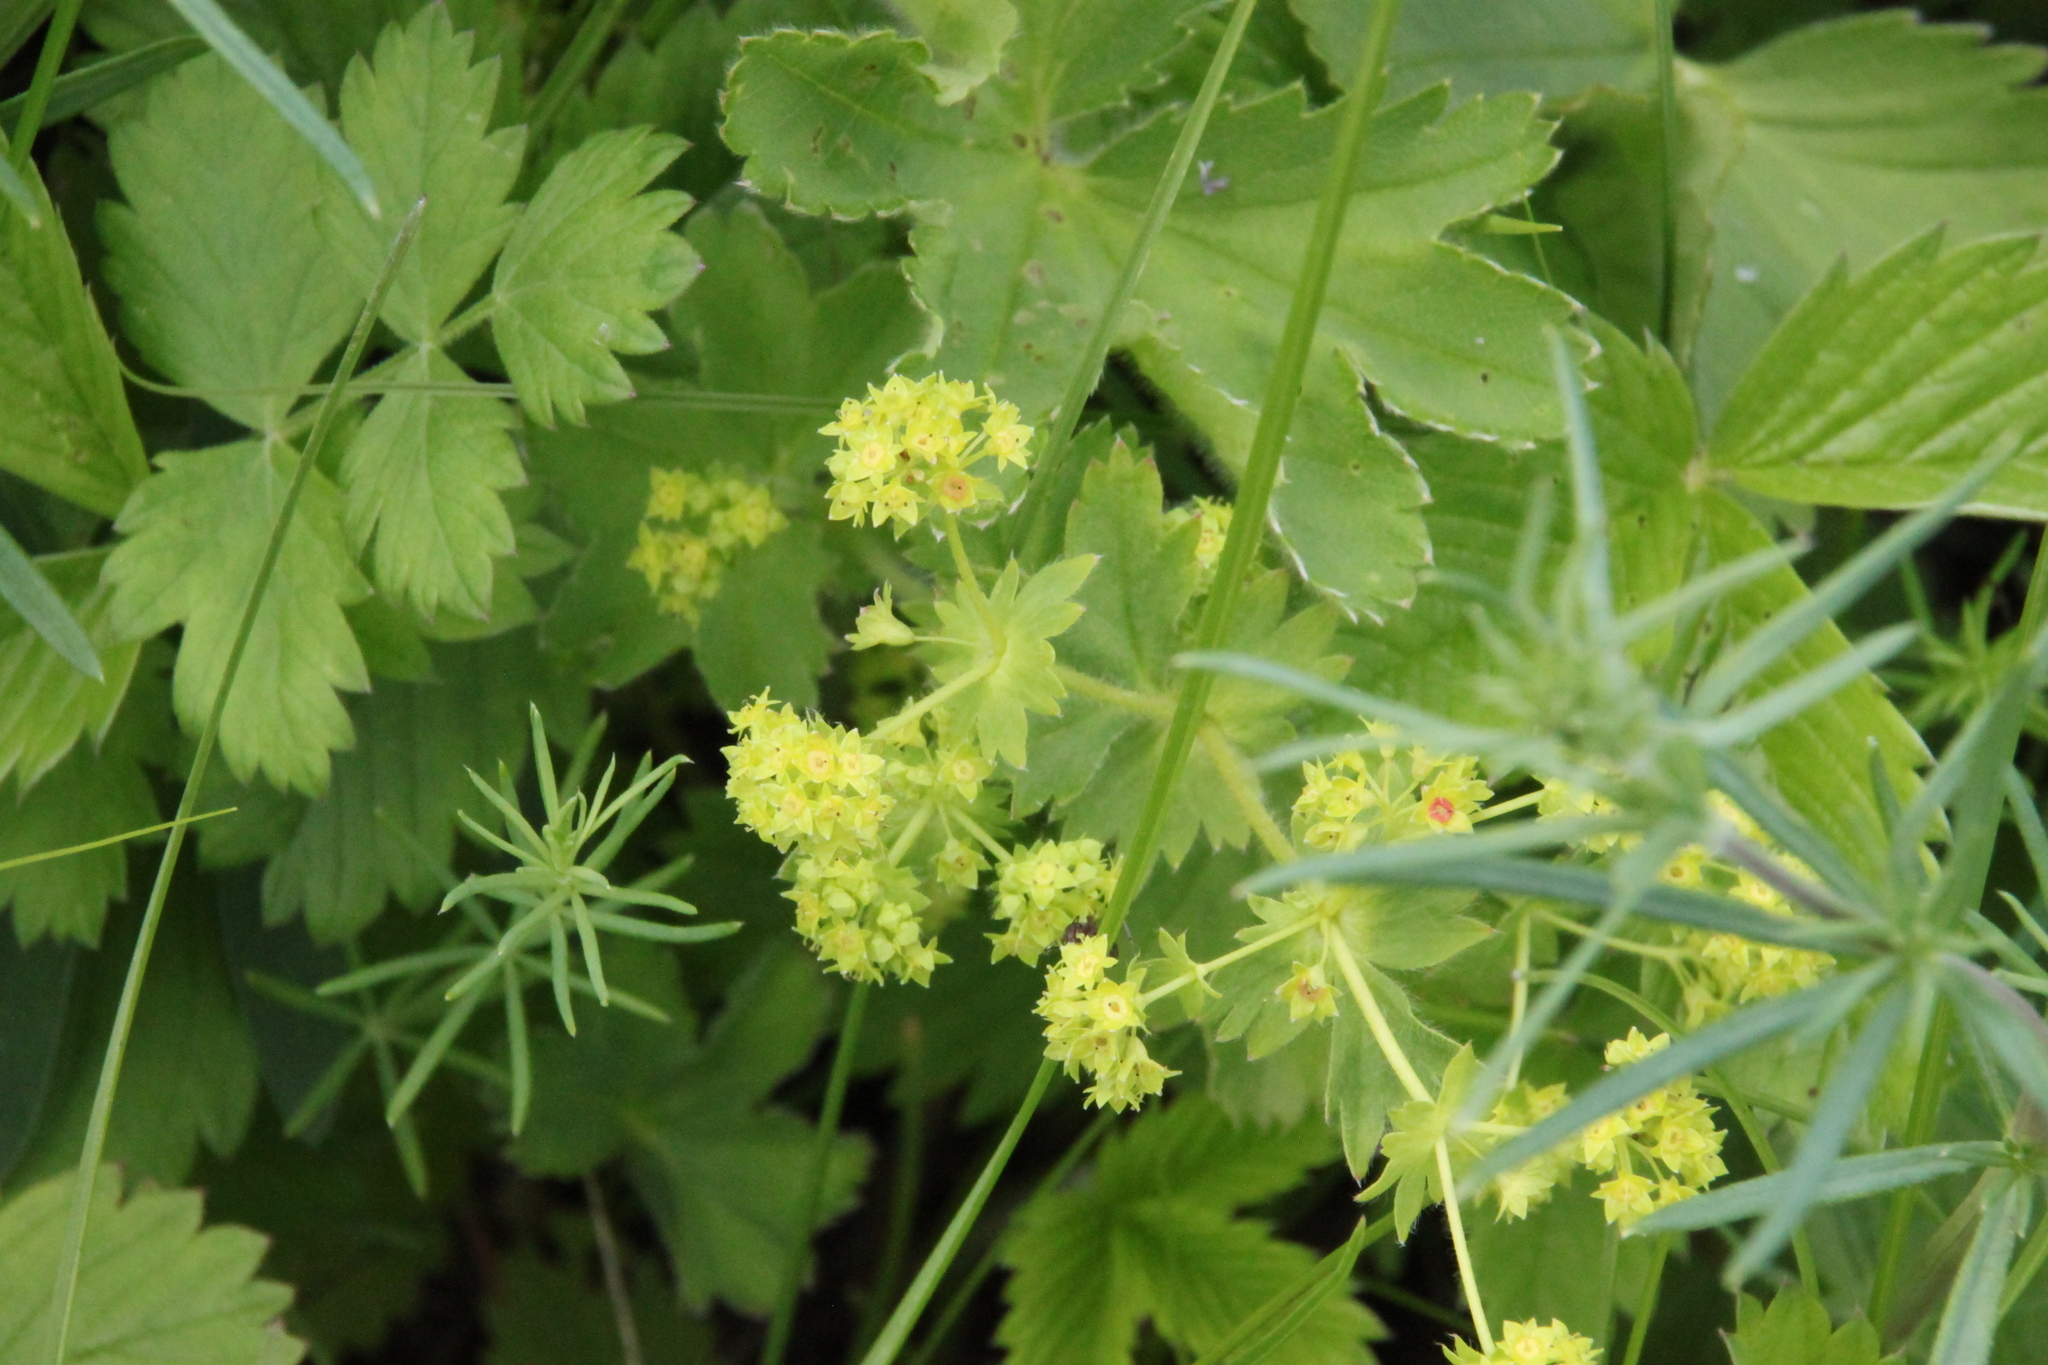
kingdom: Plantae
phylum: Tracheophyta
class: Magnoliopsida
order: Rosales
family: Rosaceae
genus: Alchemilla
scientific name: Alchemilla subcrenata
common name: Broadtooth lady's mantle
